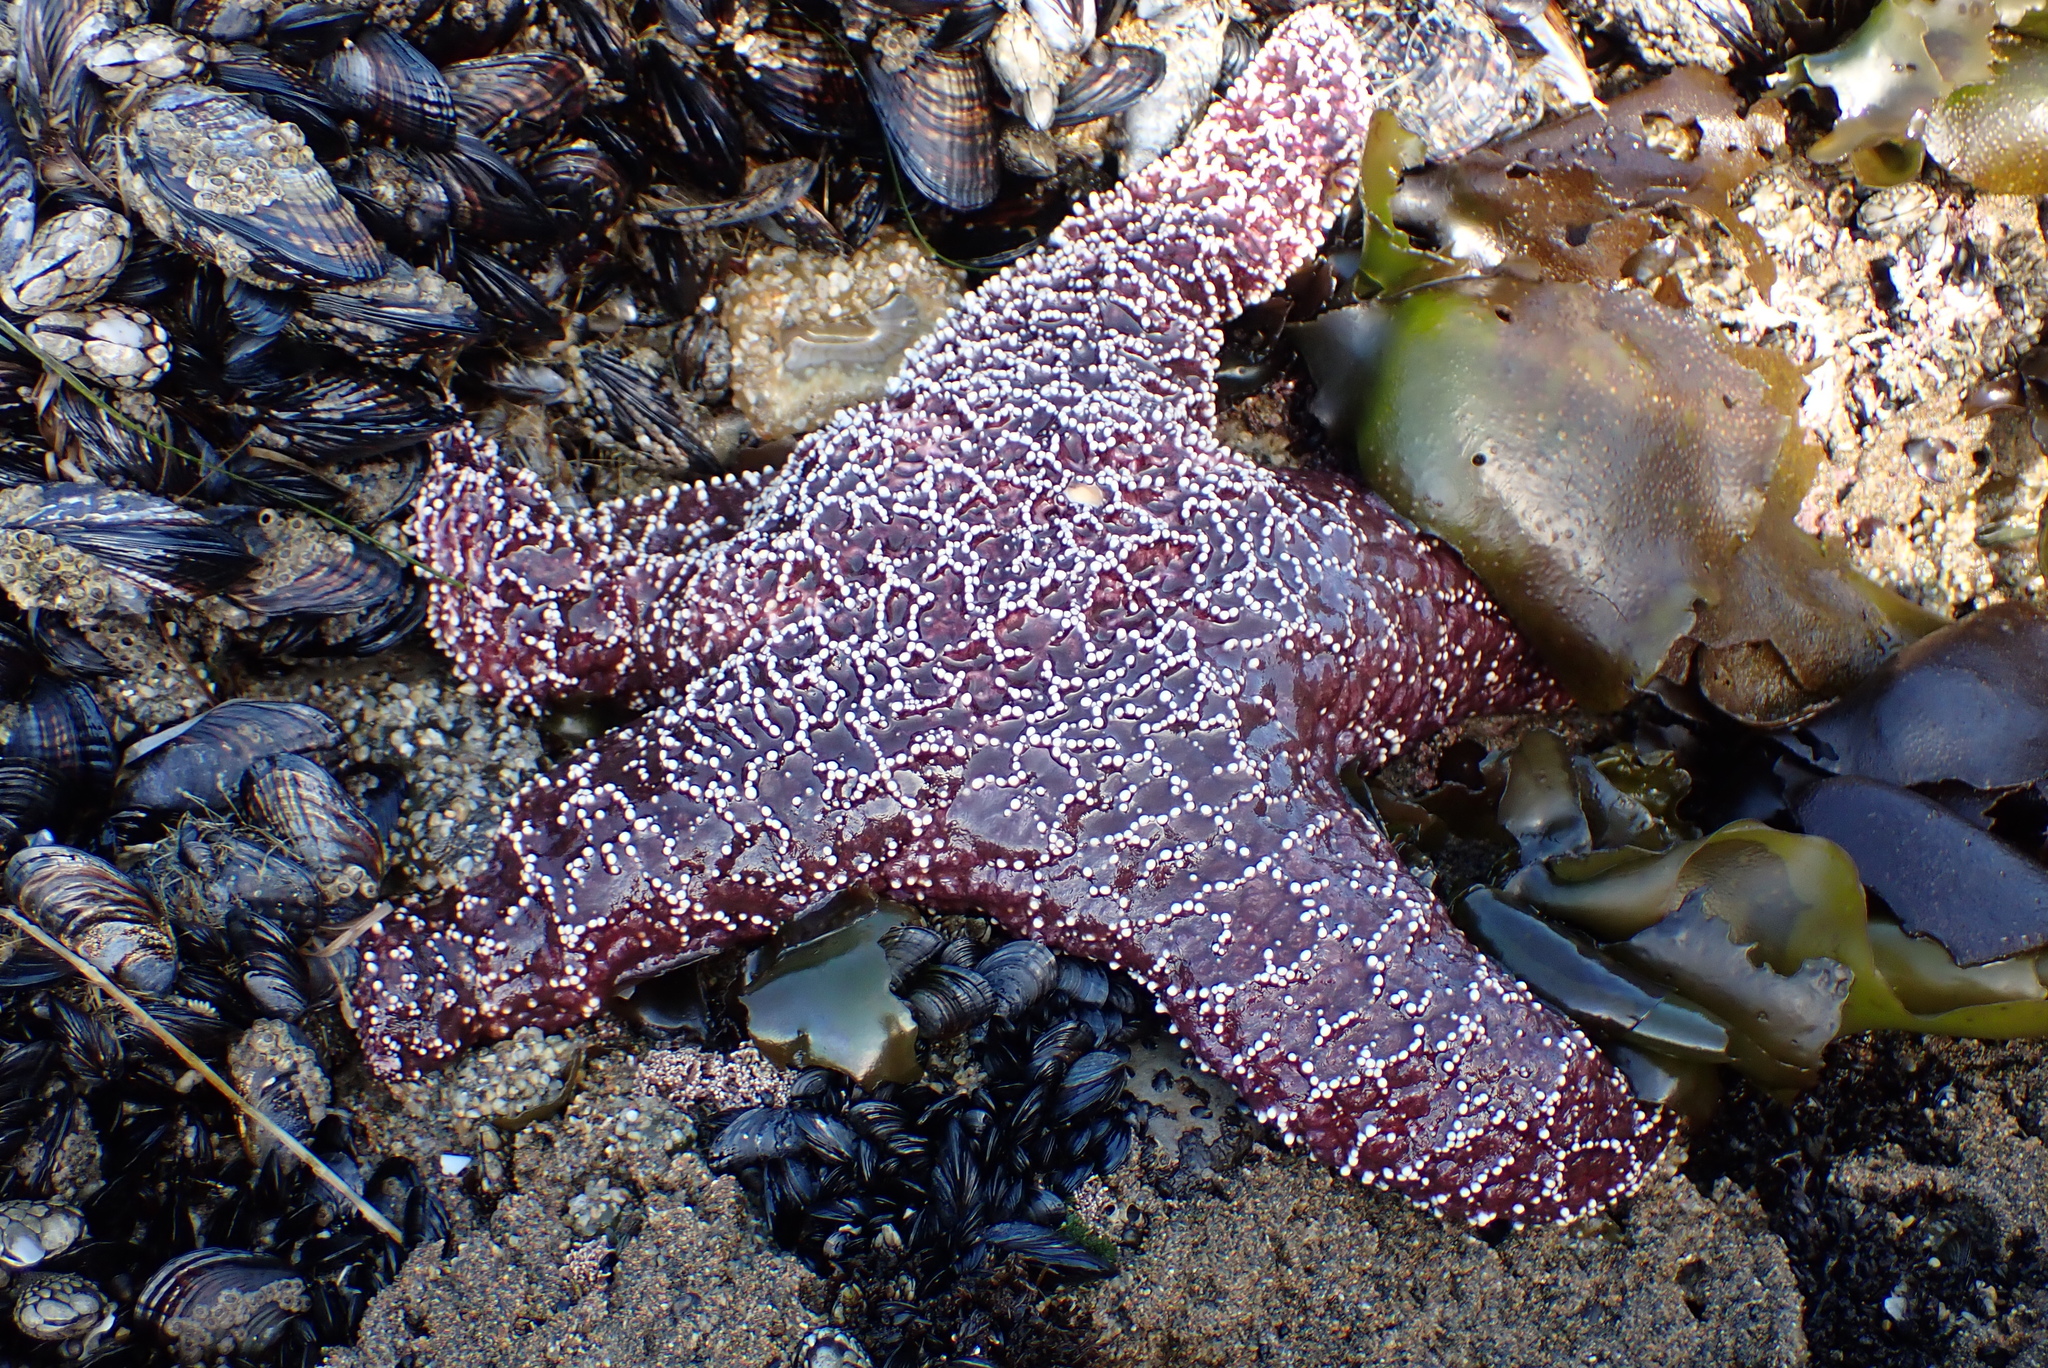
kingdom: Animalia
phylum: Echinodermata
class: Asteroidea
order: Forcipulatida
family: Asteriidae
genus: Pisaster
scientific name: Pisaster ochraceus
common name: Ochre stars
